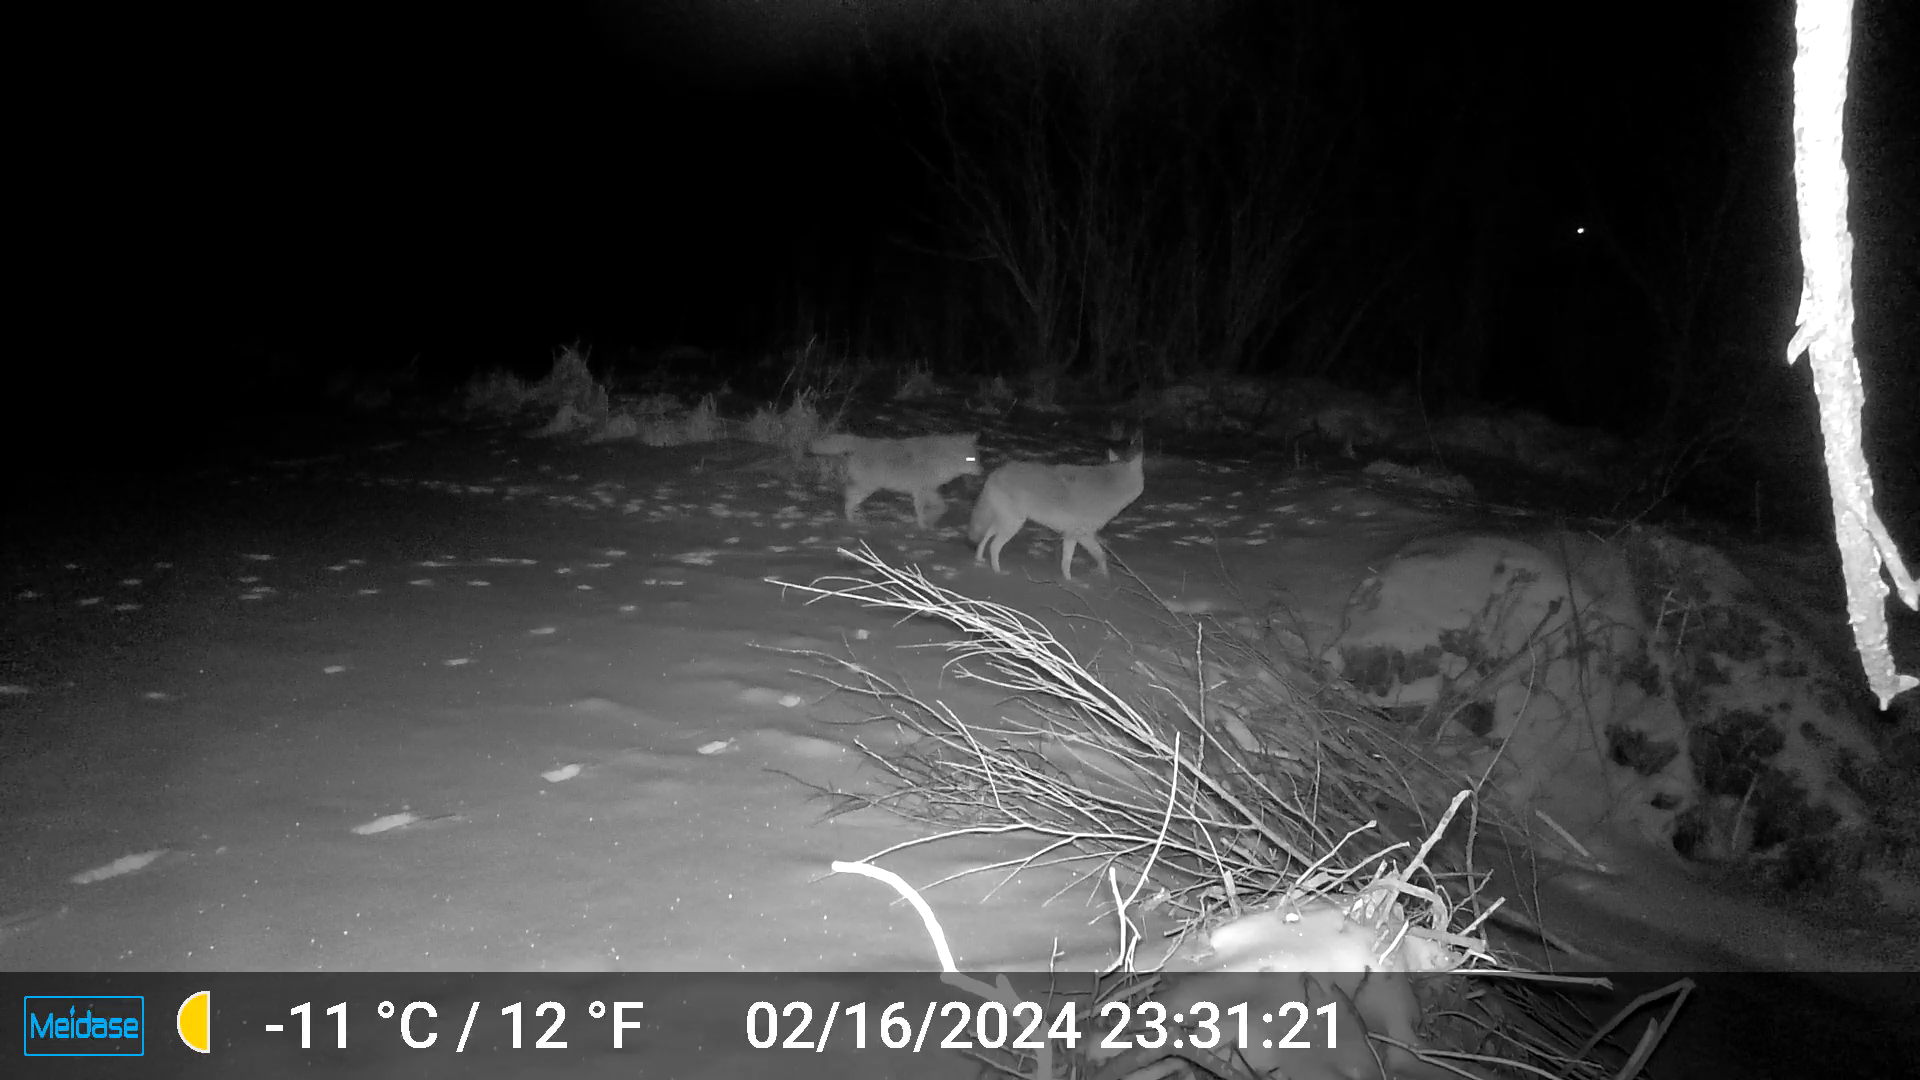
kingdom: Animalia
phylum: Chordata
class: Mammalia
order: Carnivora
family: Canidae
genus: Canis
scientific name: Canis latrans
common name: Coyote
